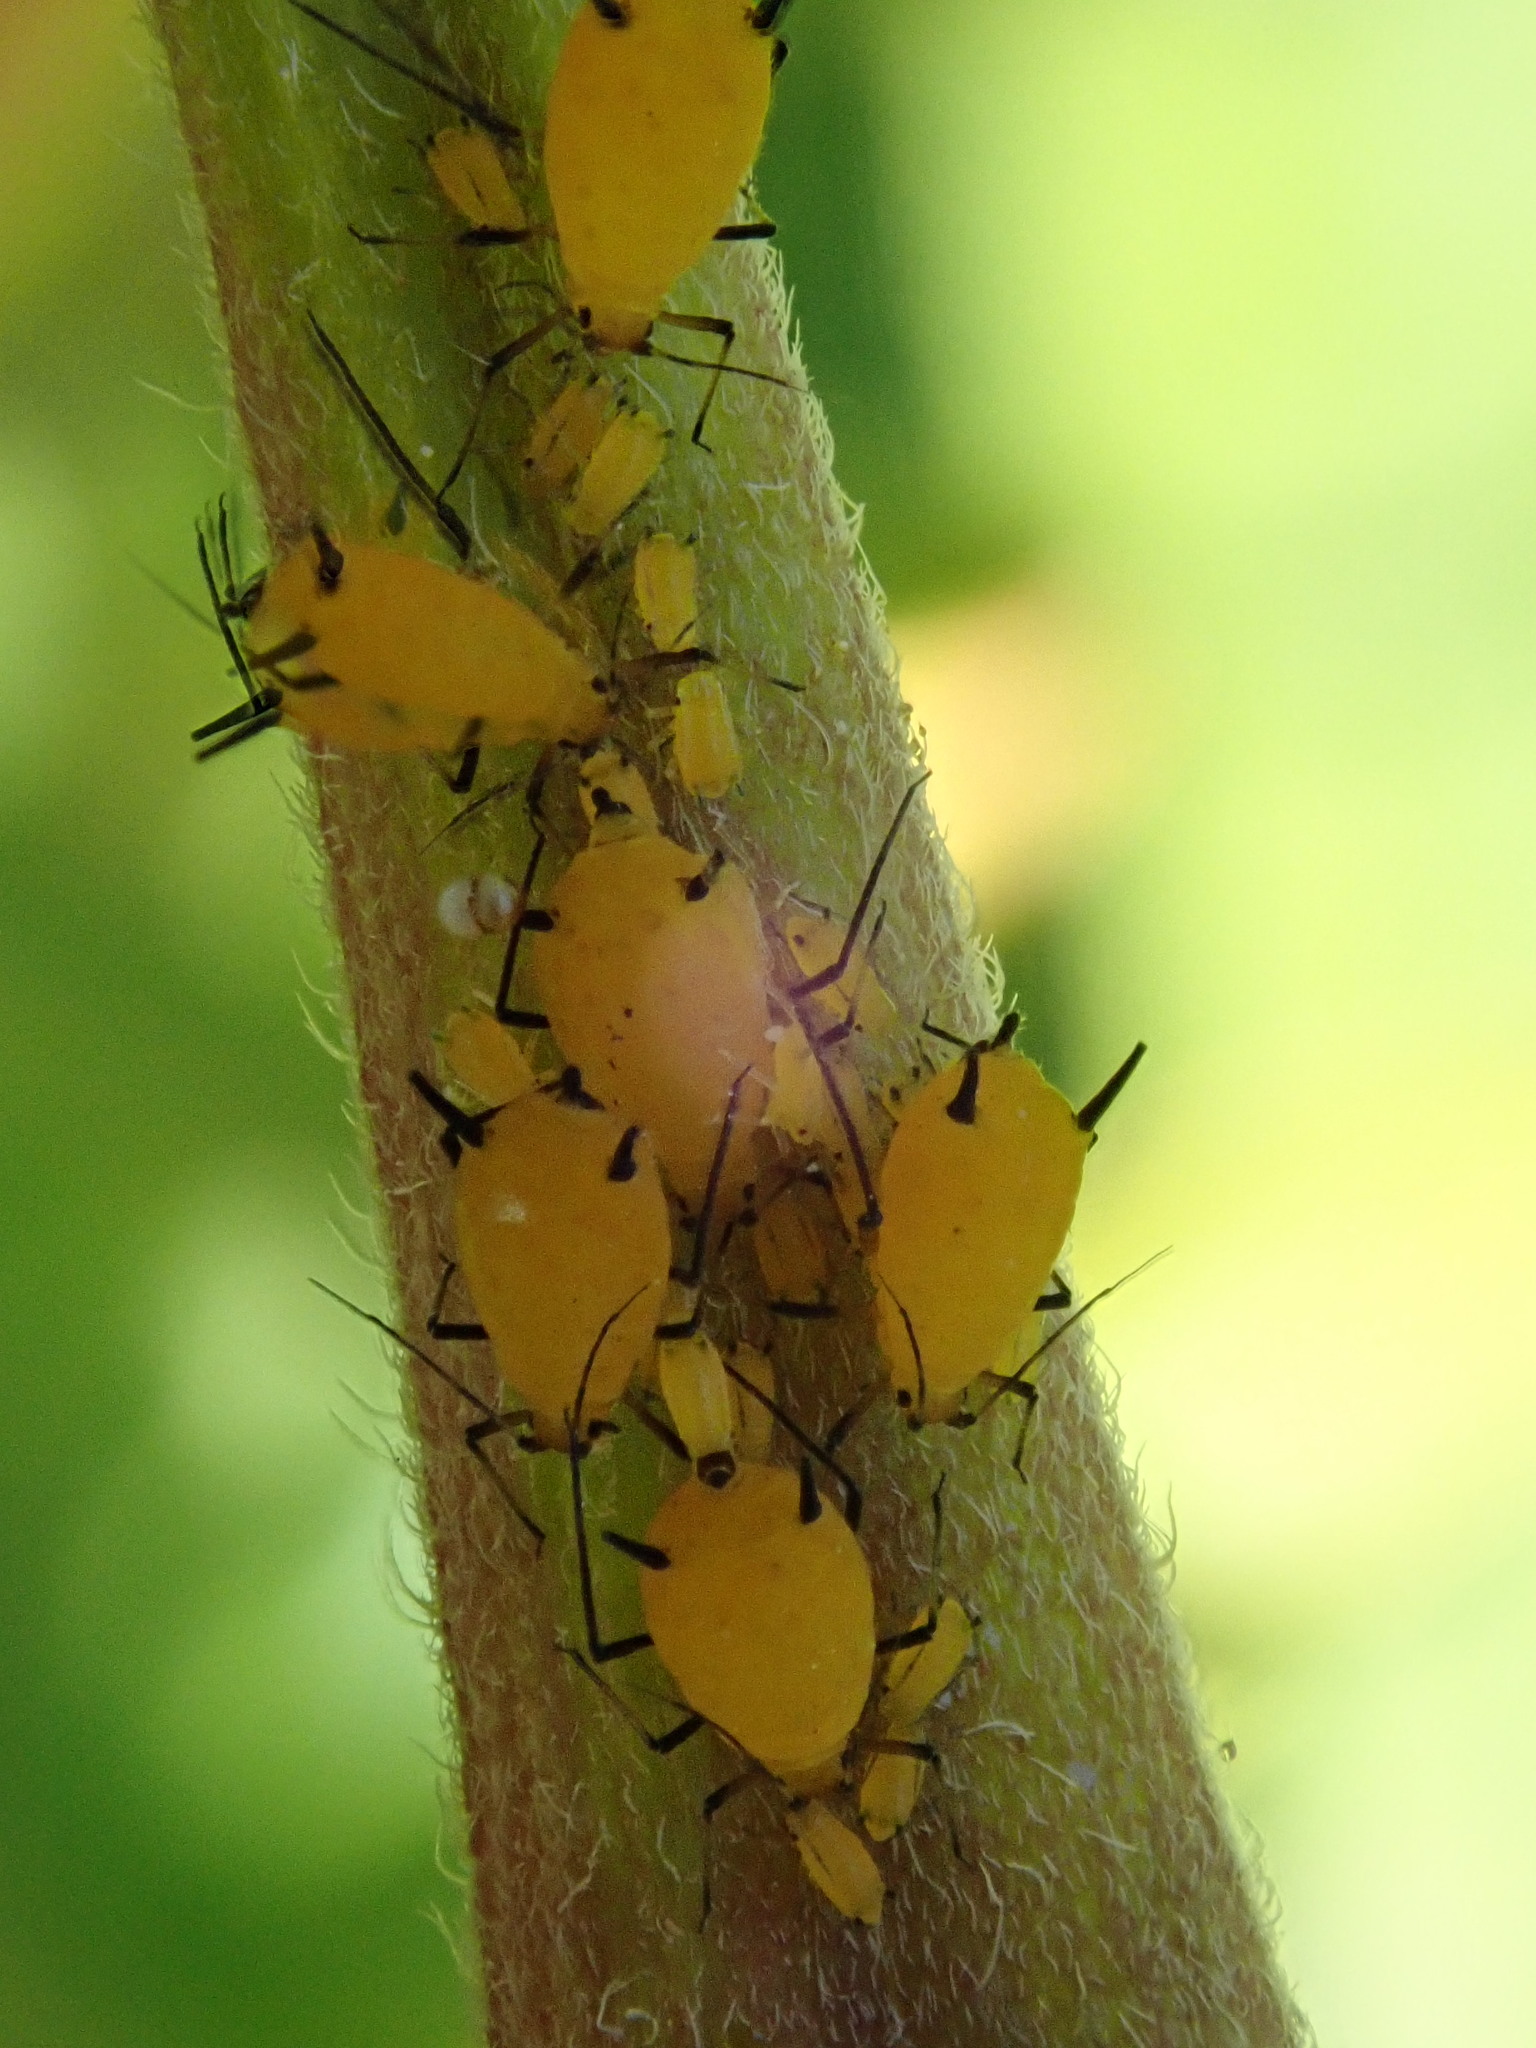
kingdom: Animalia
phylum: Arthropoda
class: Insecta
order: Hemiptera
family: Aphididae
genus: Aphis
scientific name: Aphis nerii
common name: Oleander aphid
